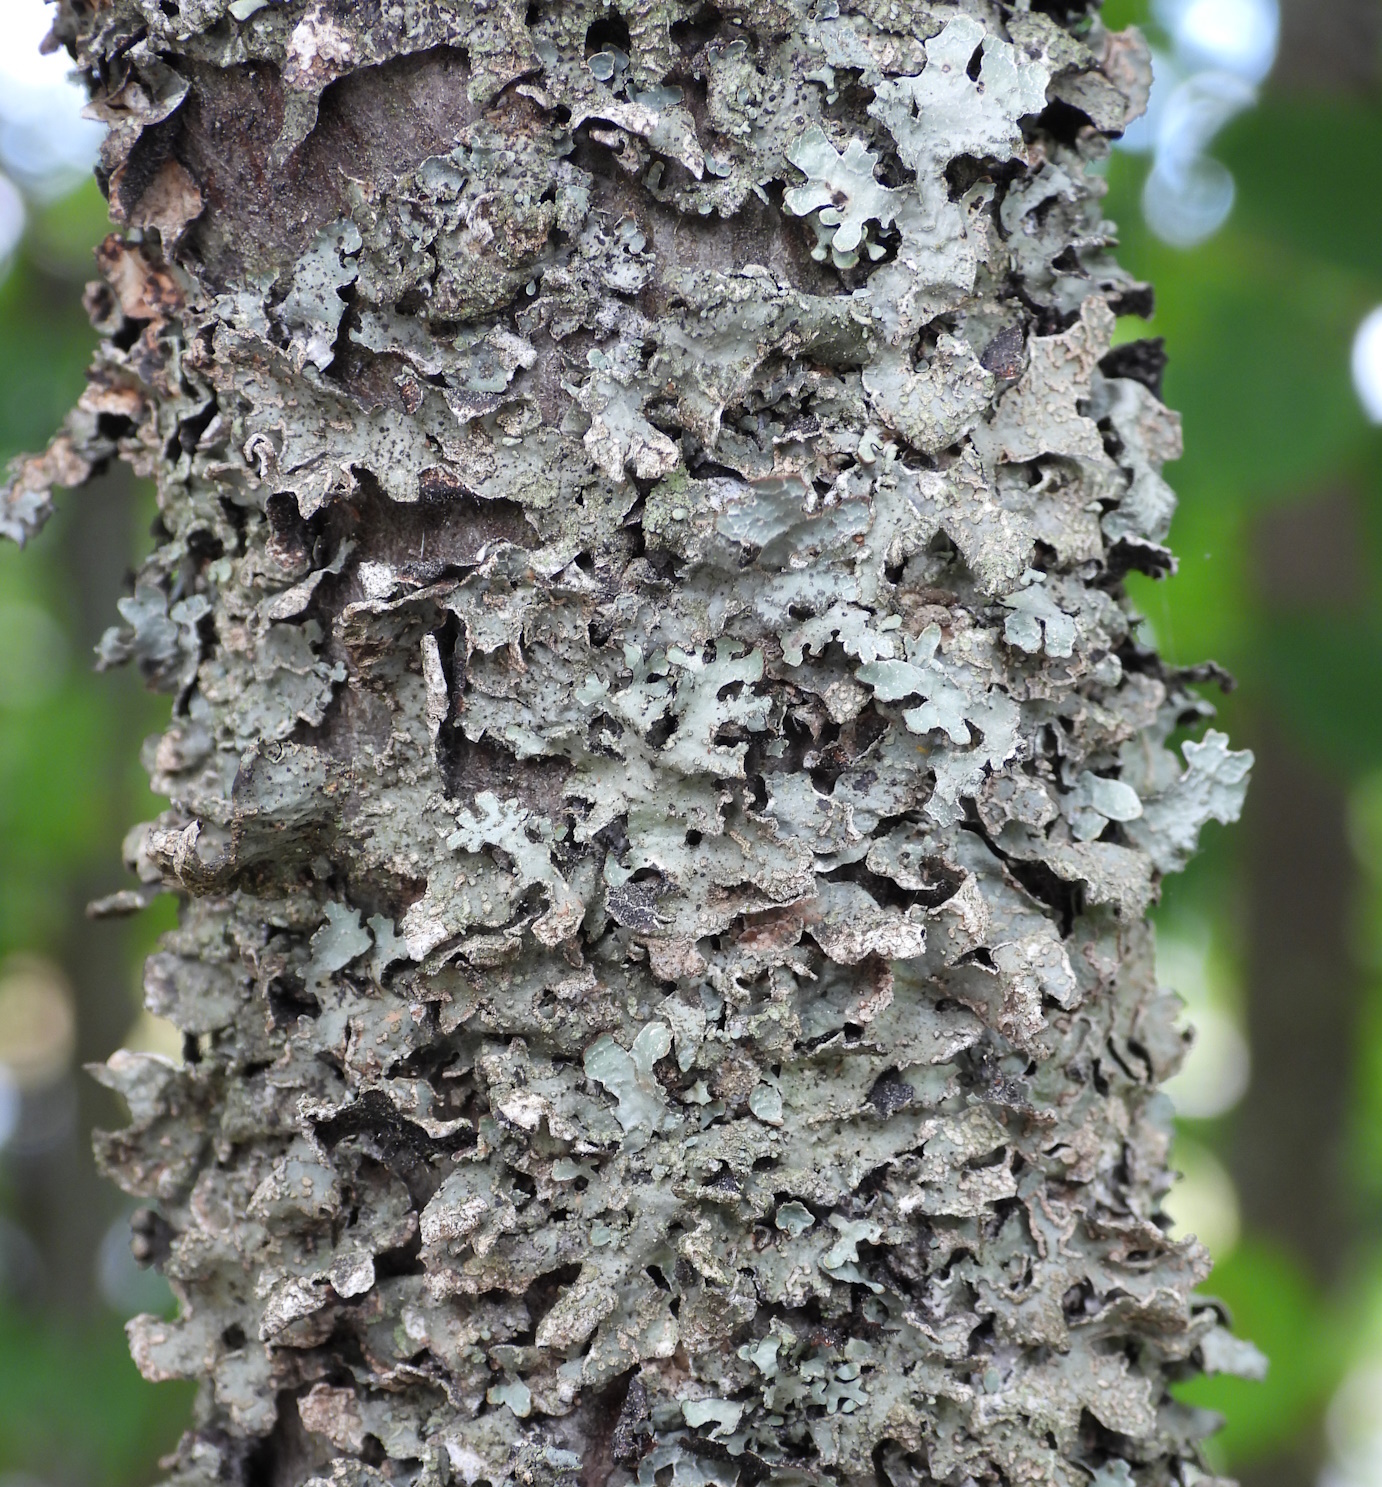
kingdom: Fungi
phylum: Ascomycota
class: Lecanoromycetes
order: Lecanorales
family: Parmeliaceae
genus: Parmelia
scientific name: Parmelia sulcata
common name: Netted shield lichen
